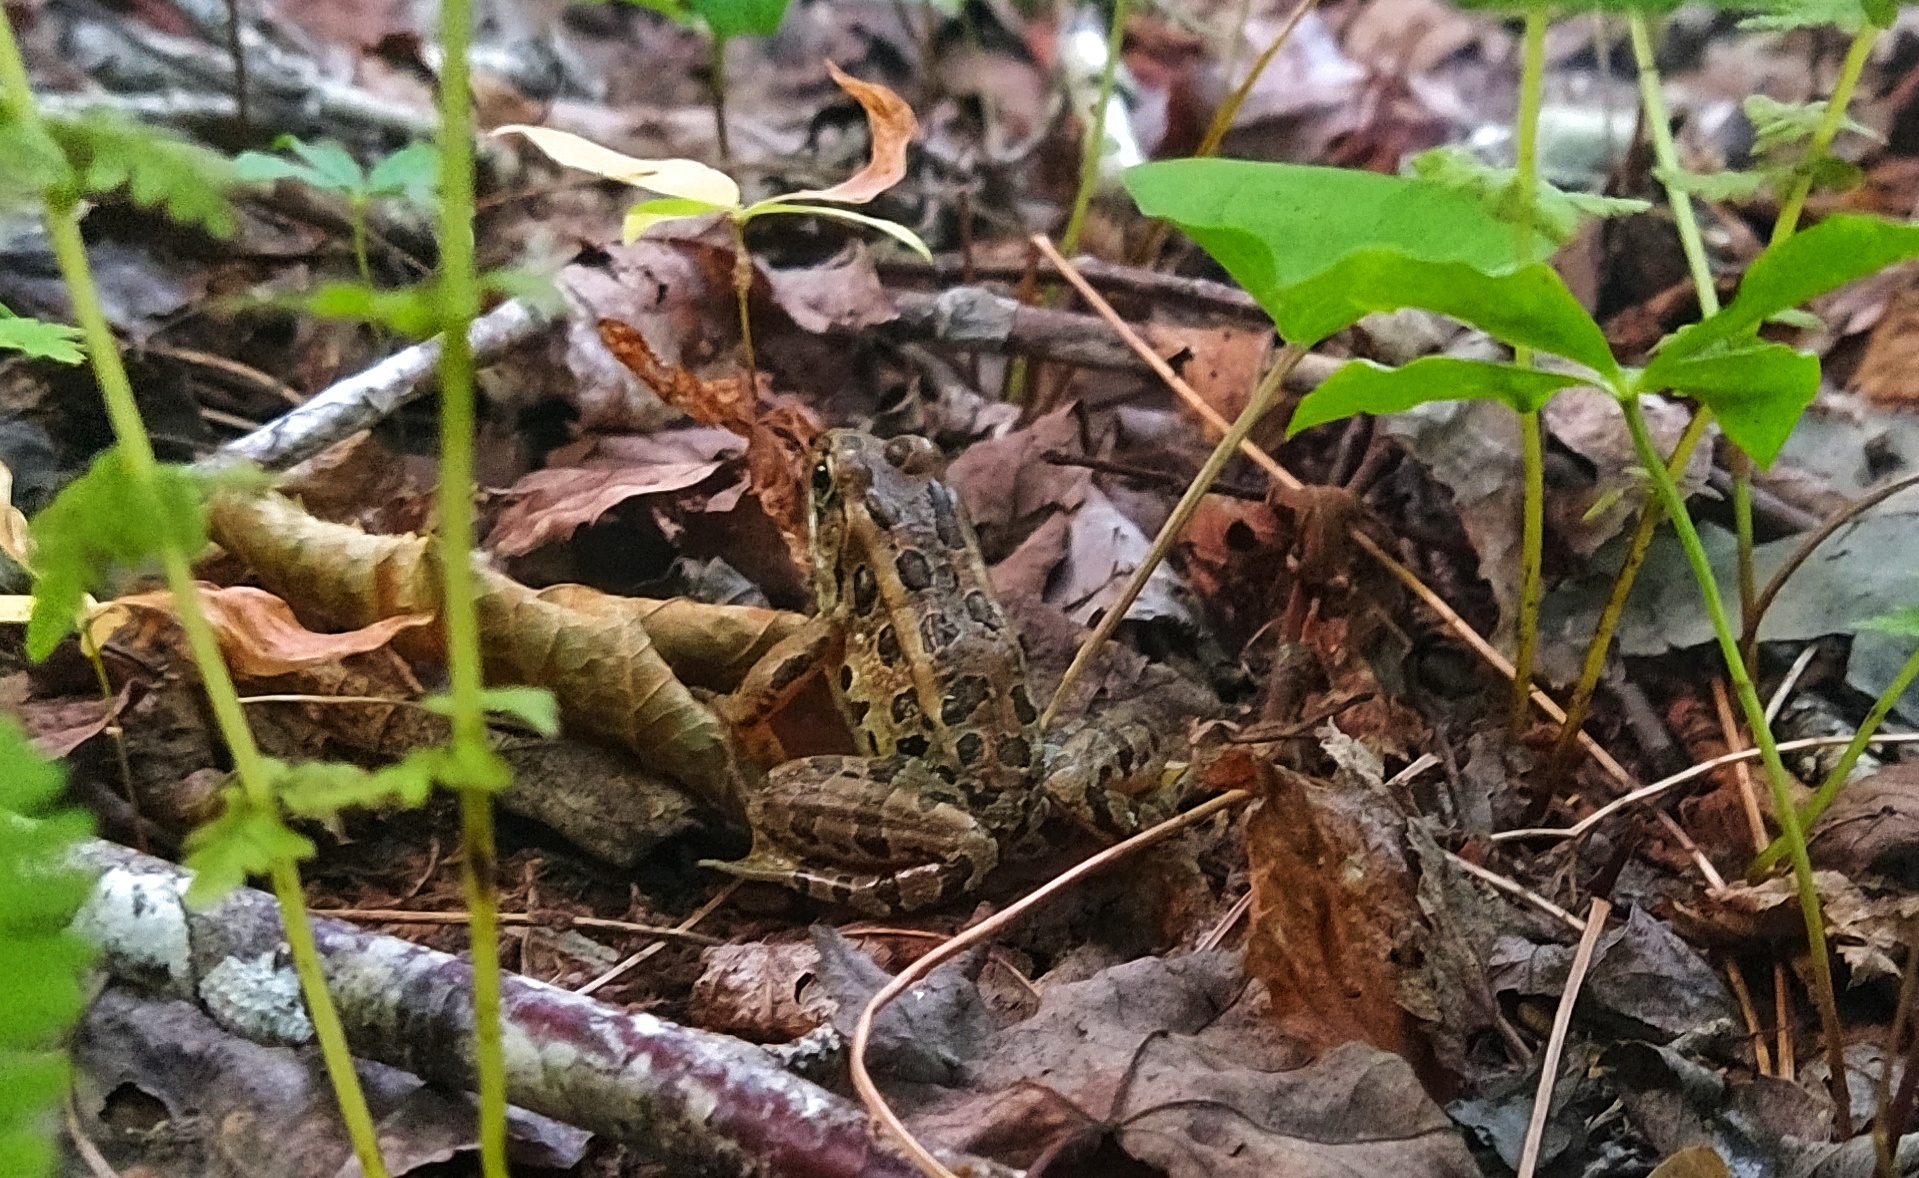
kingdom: Animalia
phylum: Chordata
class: Amphibia
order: Anura
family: Ranidae
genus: Lithobates
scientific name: Lithobates palustris
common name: Pickerel frog
